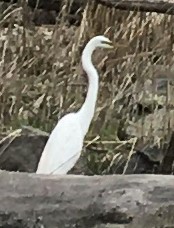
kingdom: Animalia
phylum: Chordata
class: Aves
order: Pelecaniformes
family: Ardeidae
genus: Ardea
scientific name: Ardea alba
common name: Great egret
